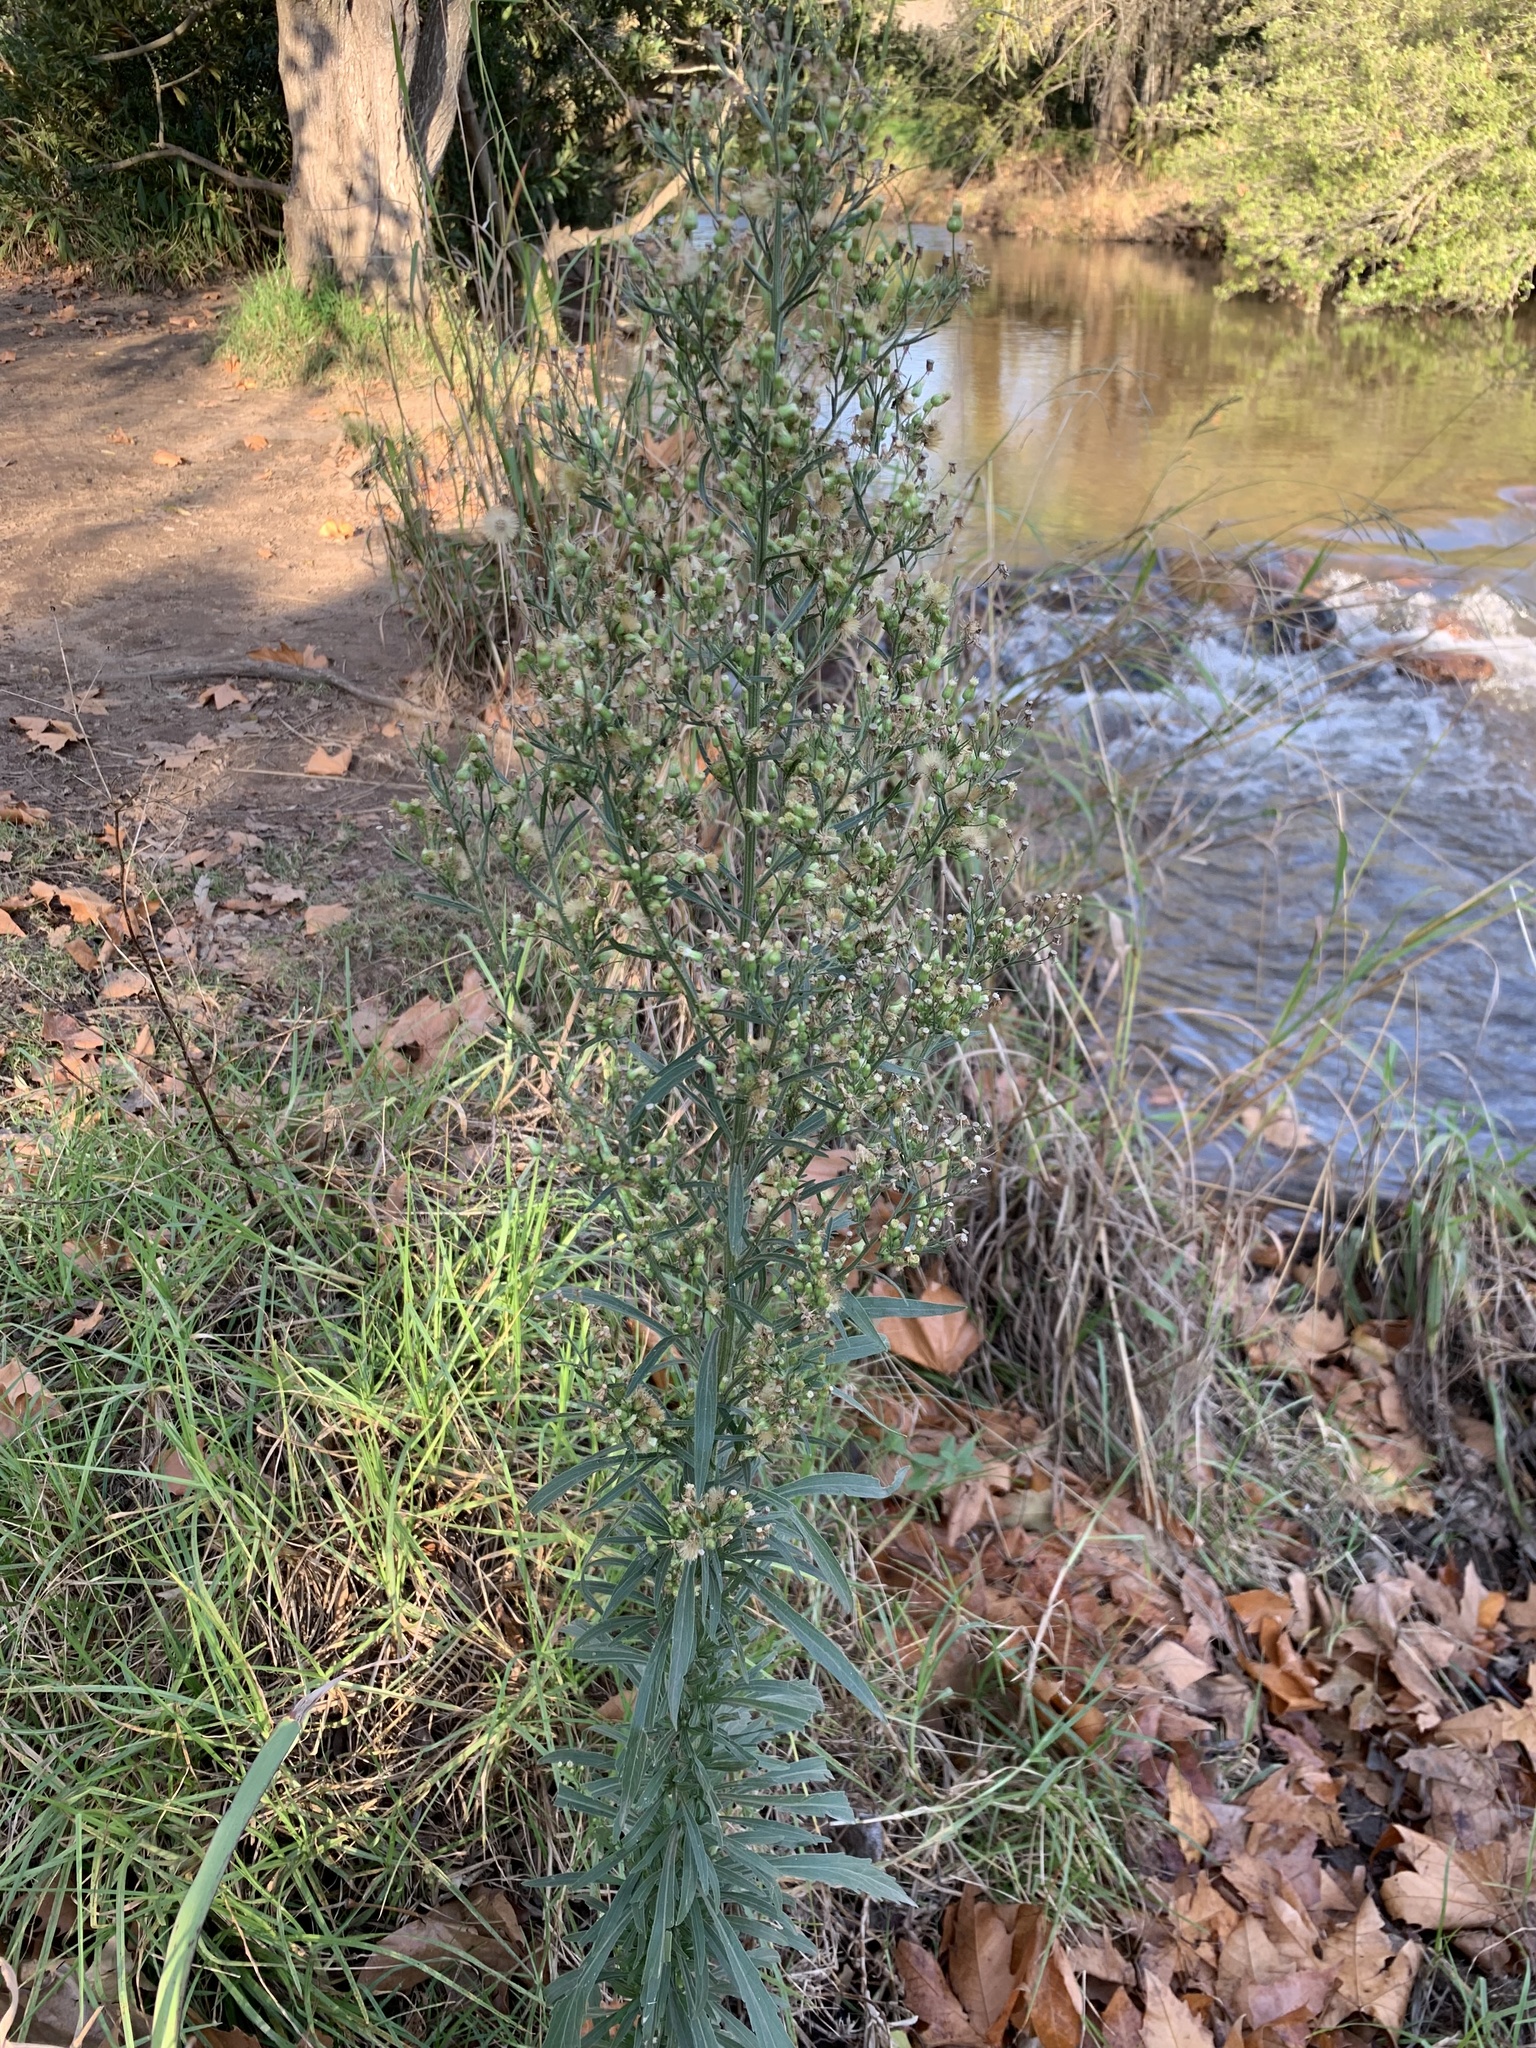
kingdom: Plantae
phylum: Tracheophyta
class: Magnoliopsida
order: Asterales
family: Asteraceae
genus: Erigeron
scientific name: Erigeron sumatrensis
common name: Daisy
